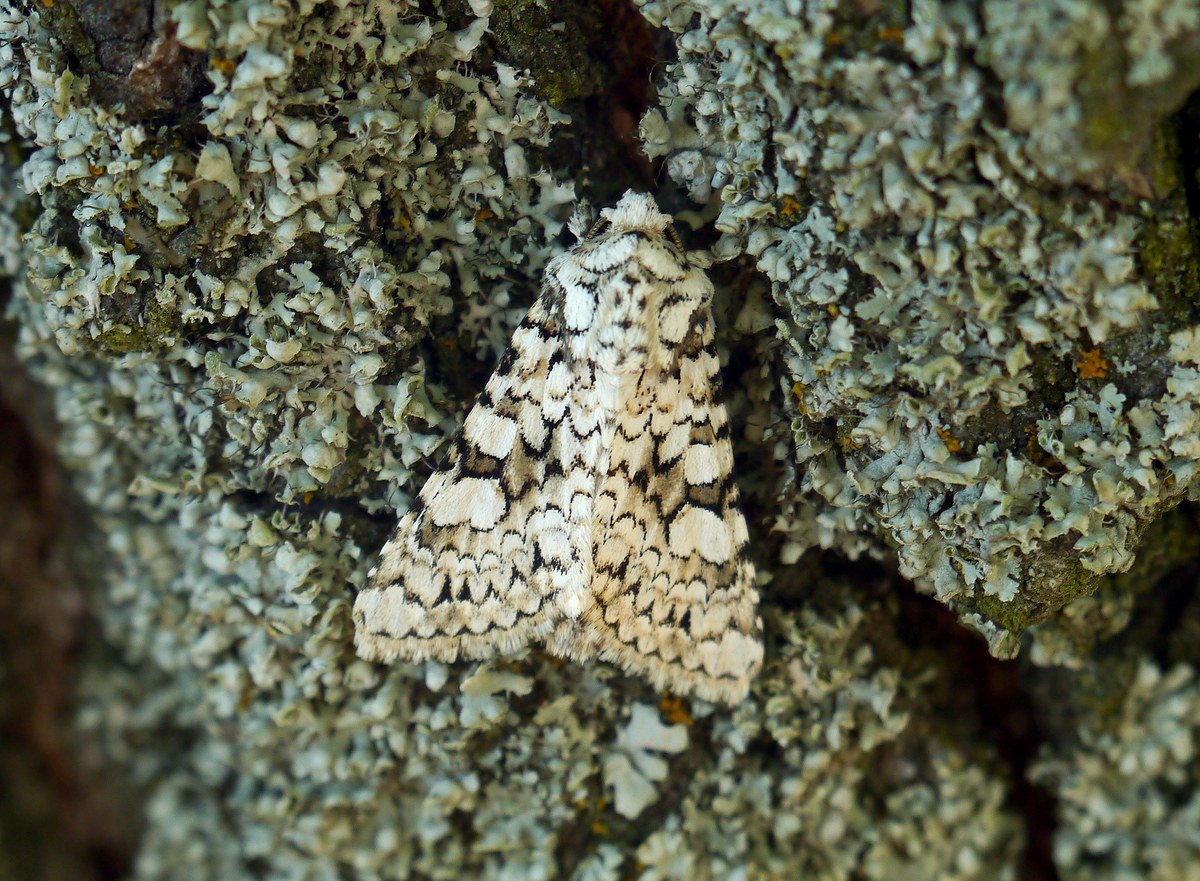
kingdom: Animalia
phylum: Arthropoda
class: Insecta
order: Lepidoptera
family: Noctuidae
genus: Hecatera
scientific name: Hecatera cappa
